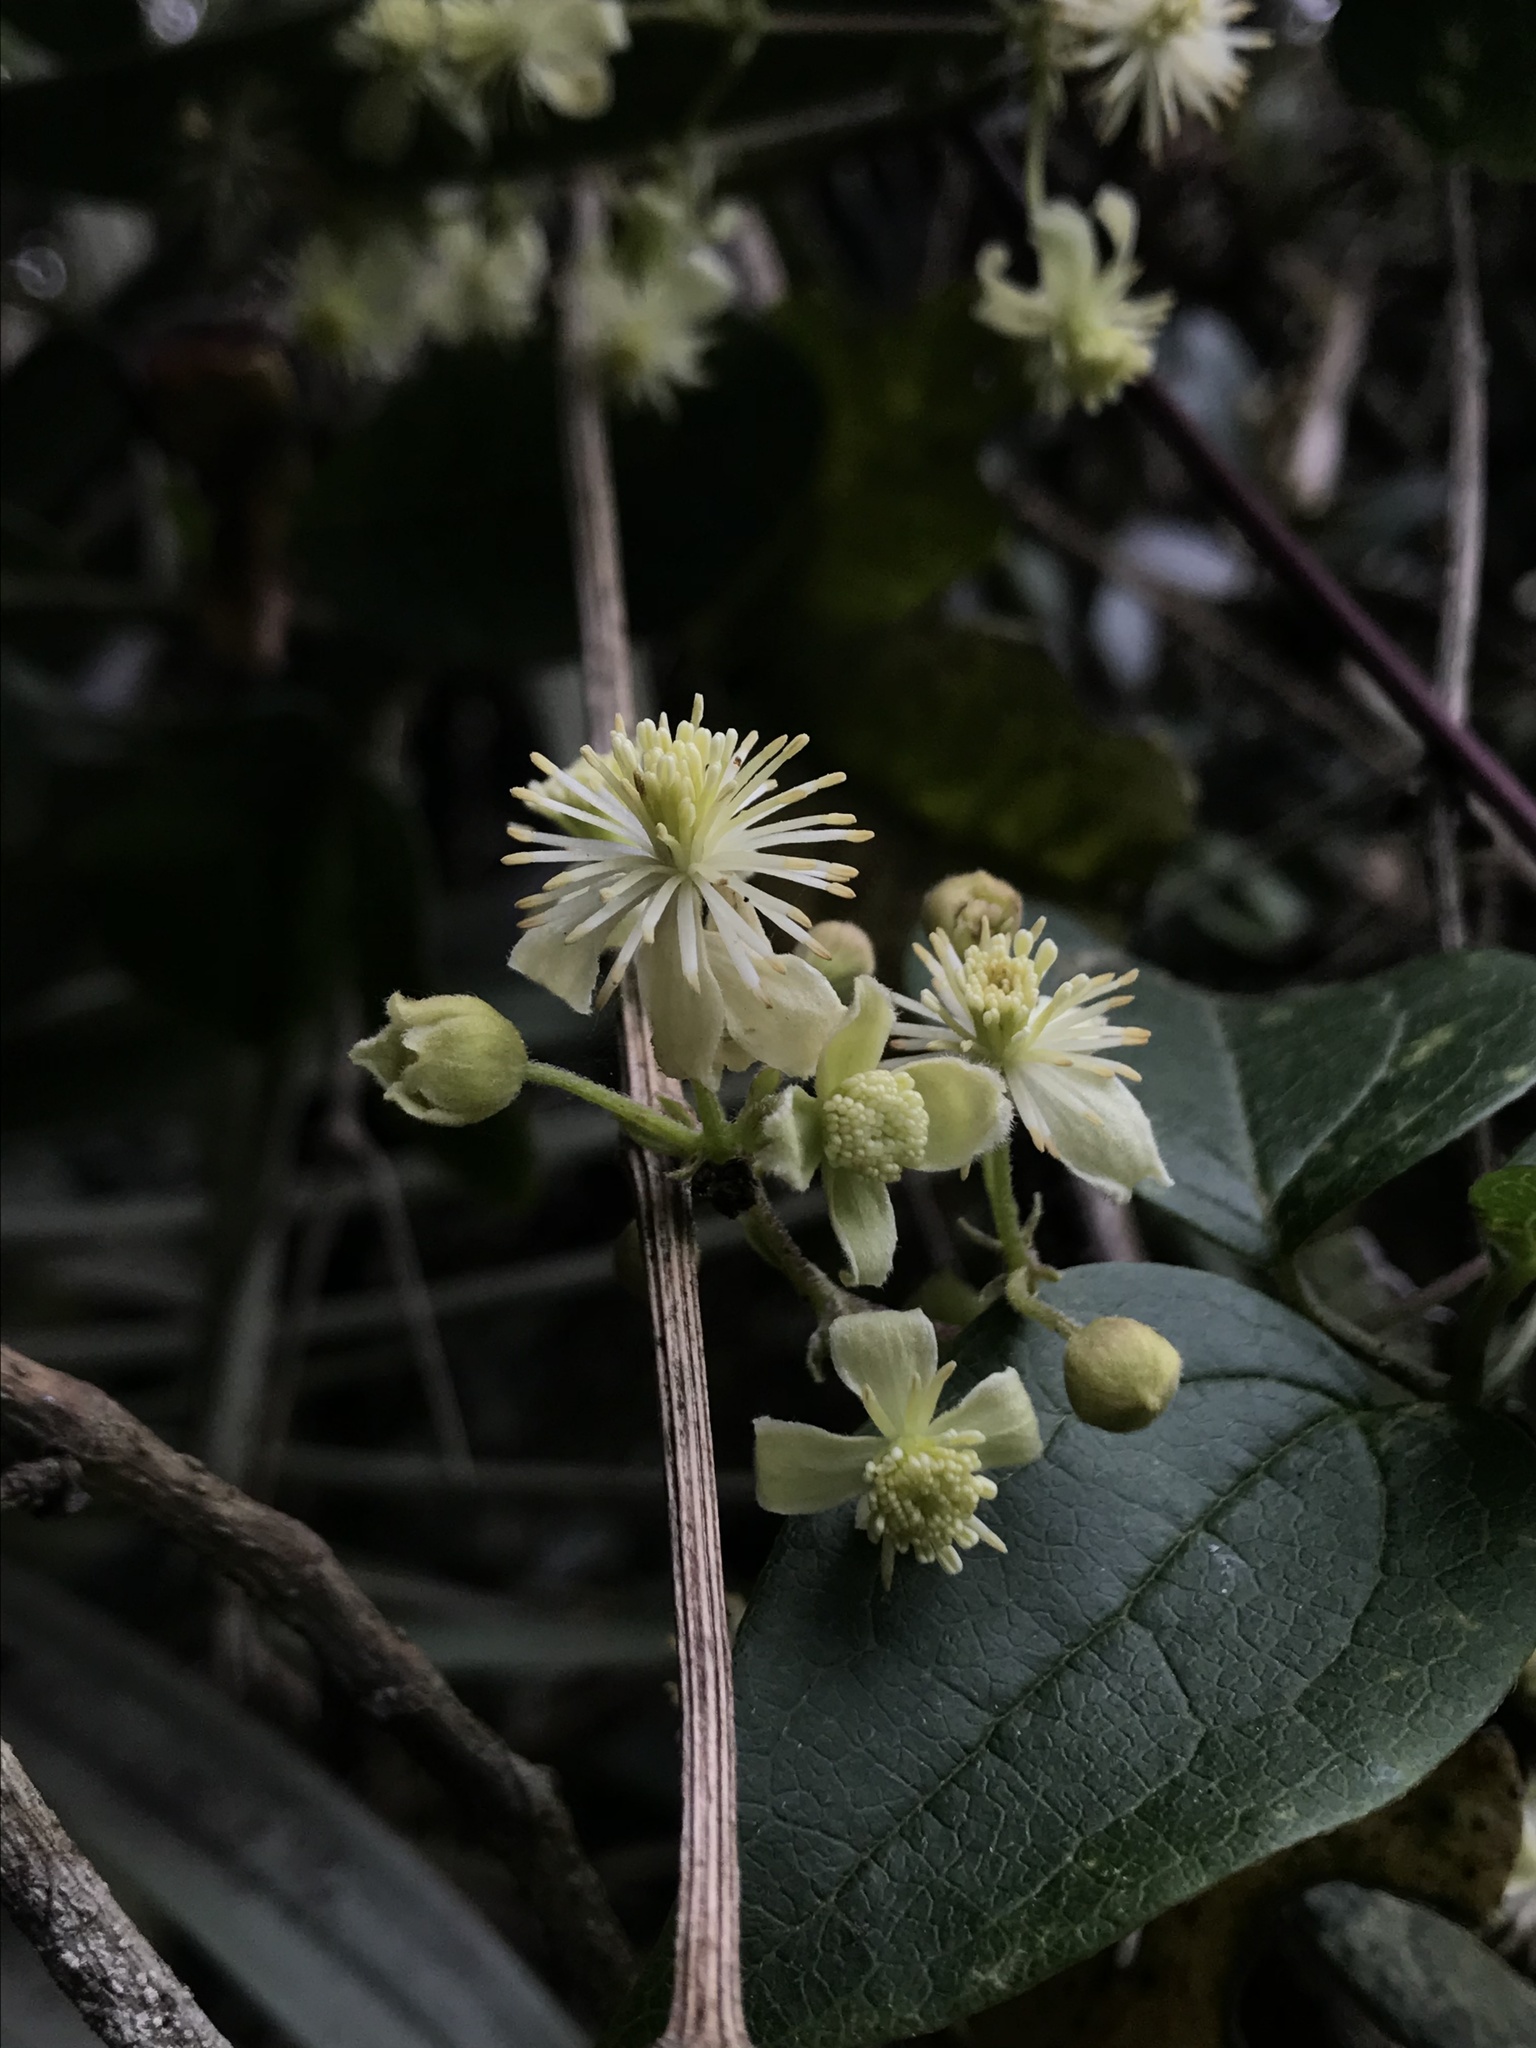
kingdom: Plantae
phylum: Tracheophyta
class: Magnoliopsida
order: Ranunculales
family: Ranunculaceae
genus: Clematis
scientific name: Clematis haenkeana
